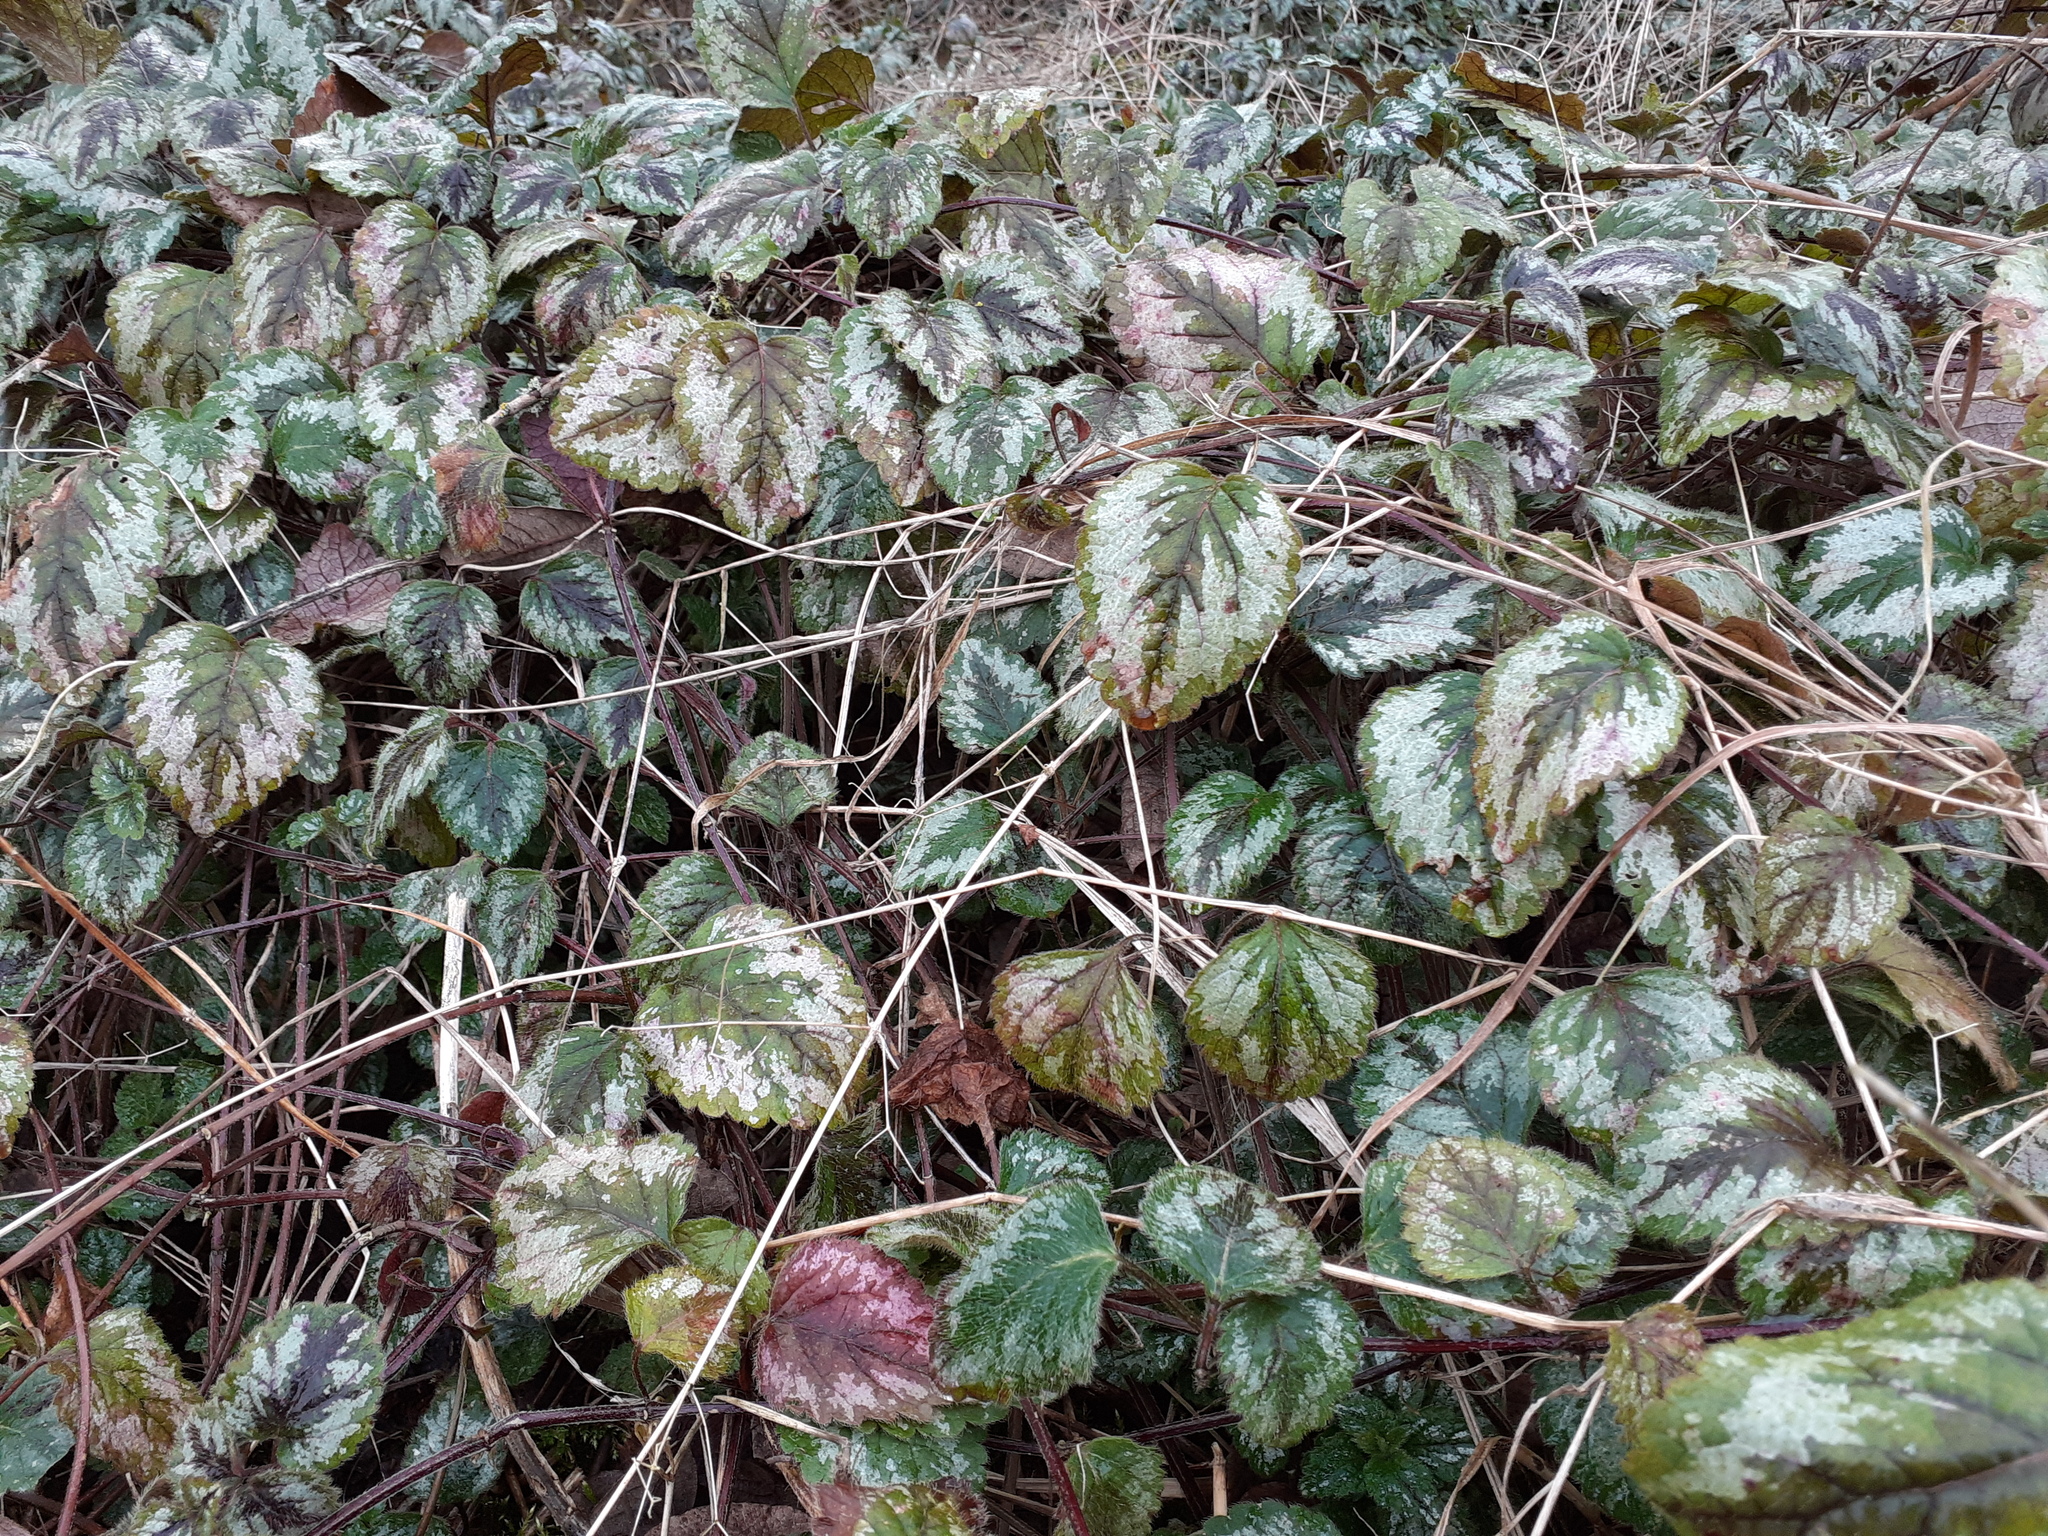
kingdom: Plantae
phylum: Tracheophyta
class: Magnoliopsida
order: Lamiales
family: Lamiaceae
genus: Lamium
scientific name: Lamium galeobdolon
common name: Yellow archangel
